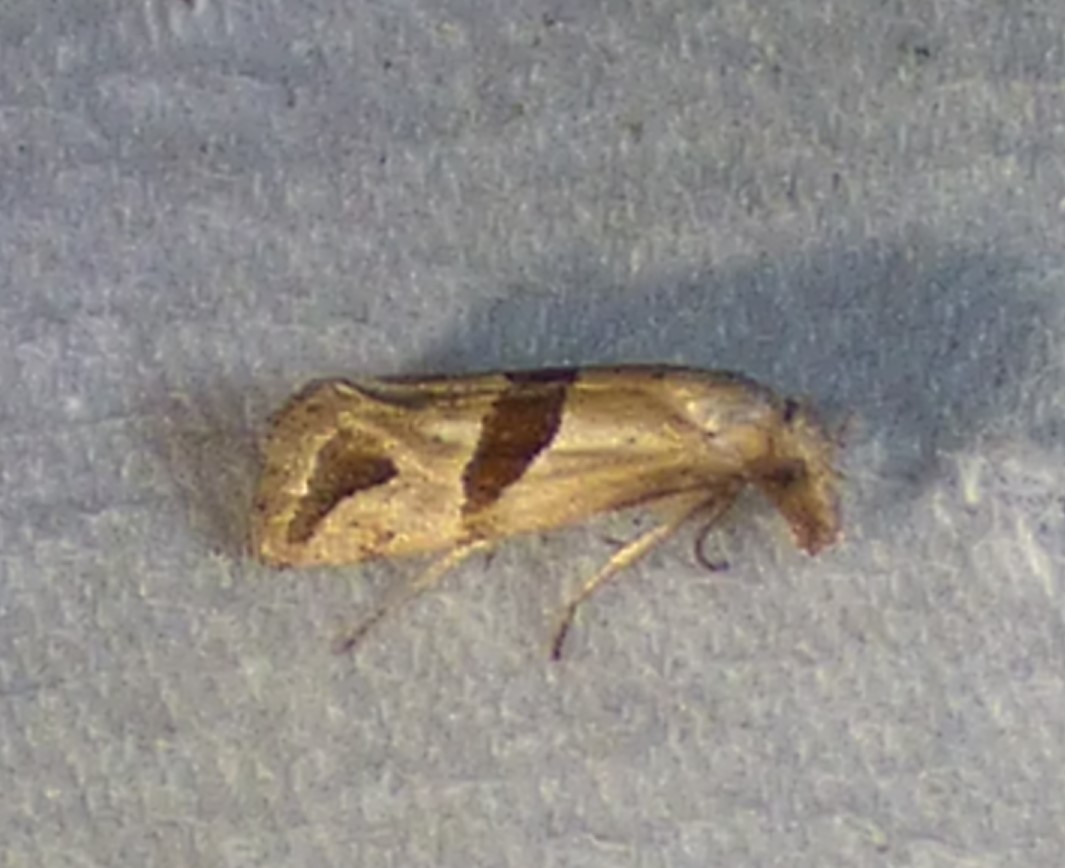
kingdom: Animalia
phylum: Arthropoda
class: Insecta
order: Lepidoptera
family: Tortricidae
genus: Eugnosta
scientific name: Eugnosta sartana
